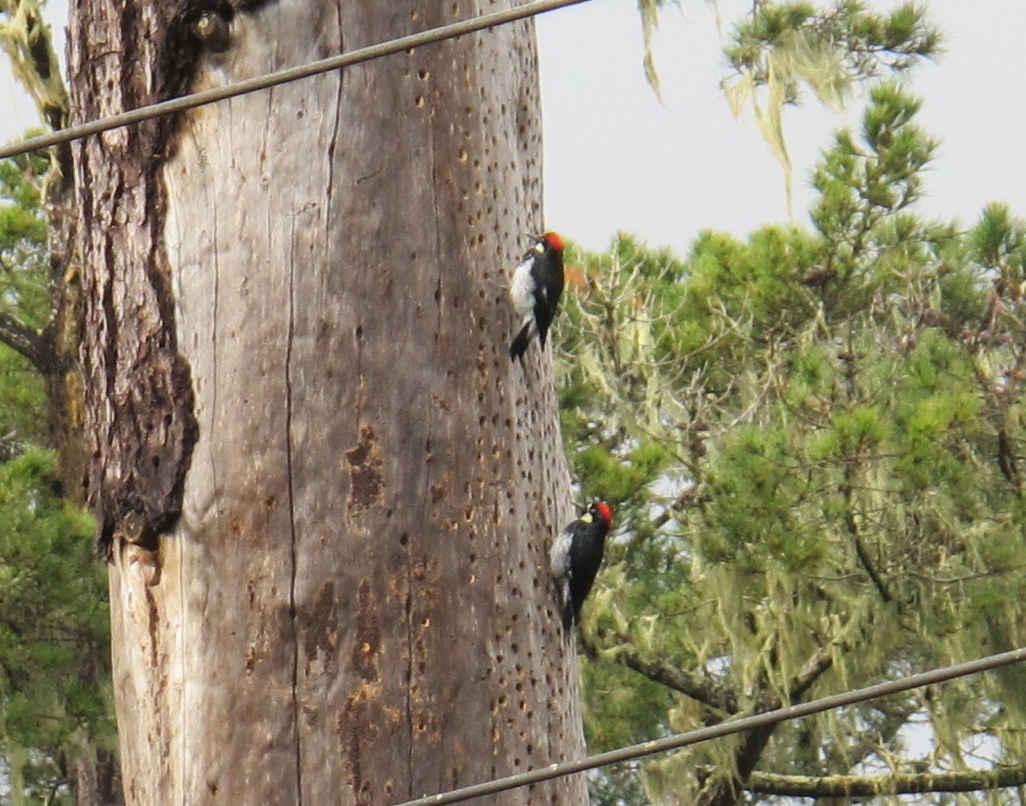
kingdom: Animalia
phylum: Chordata
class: Aves
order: Piciformes
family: Picidae
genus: Melanerpes
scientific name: Melanerpes formicivorus
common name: Acorn woodpecker
